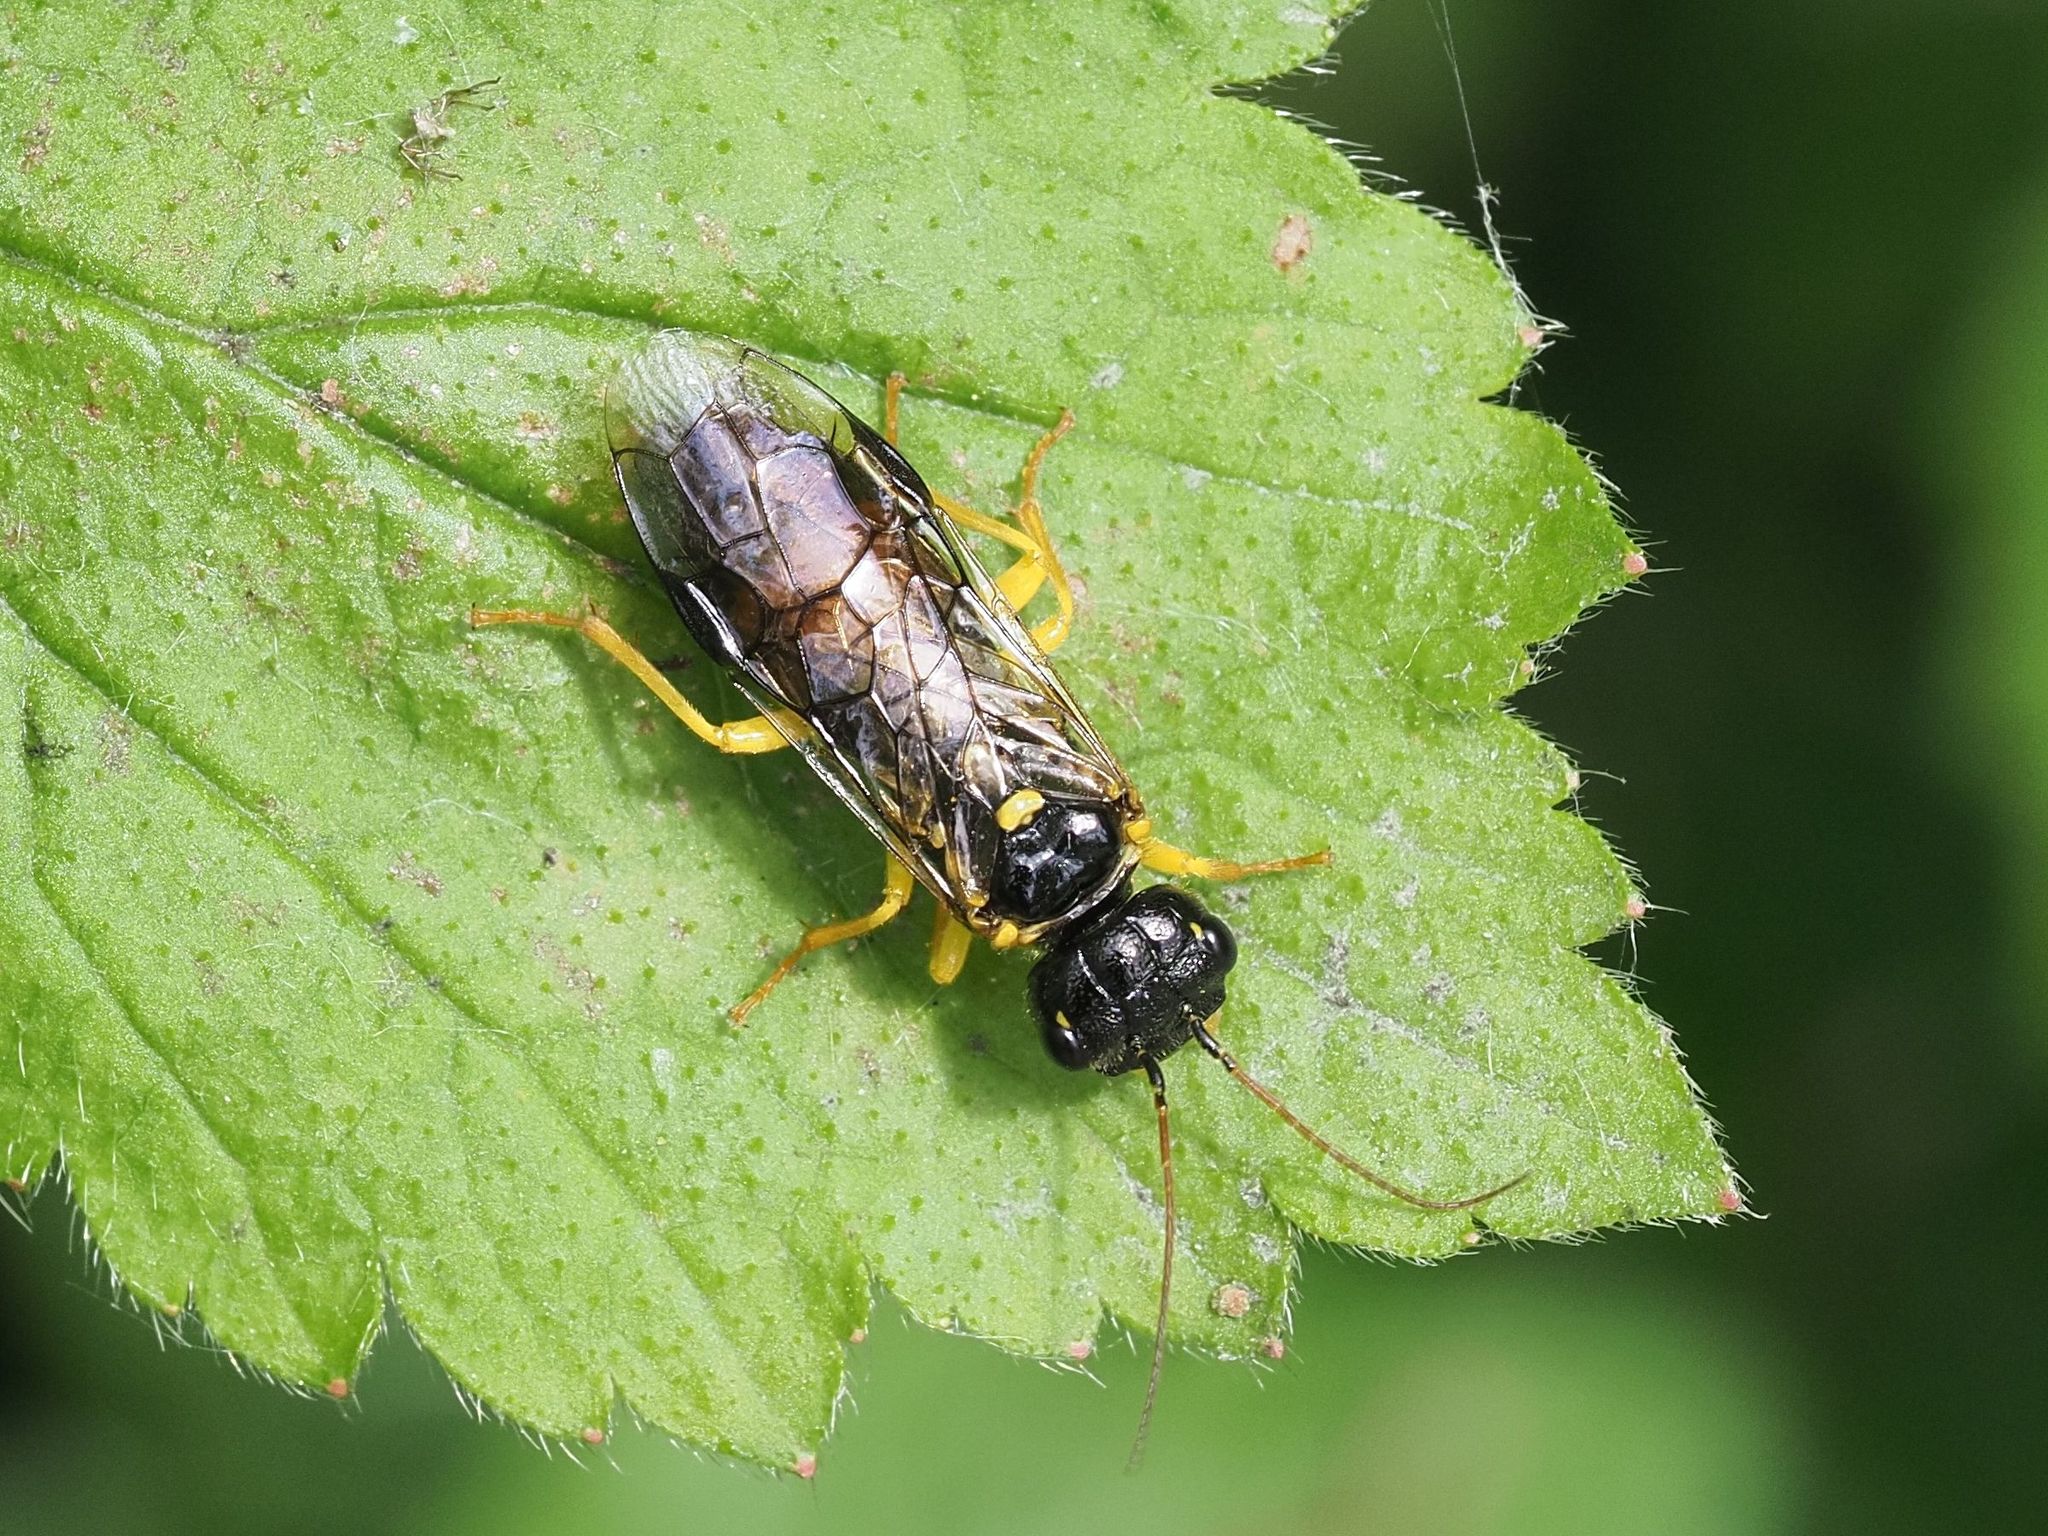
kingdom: Animalia
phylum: Arthropoda
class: Insecta
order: Hymenoptera
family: Pamphiliidae
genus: Pamphilius
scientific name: Pamphilius hortorum
